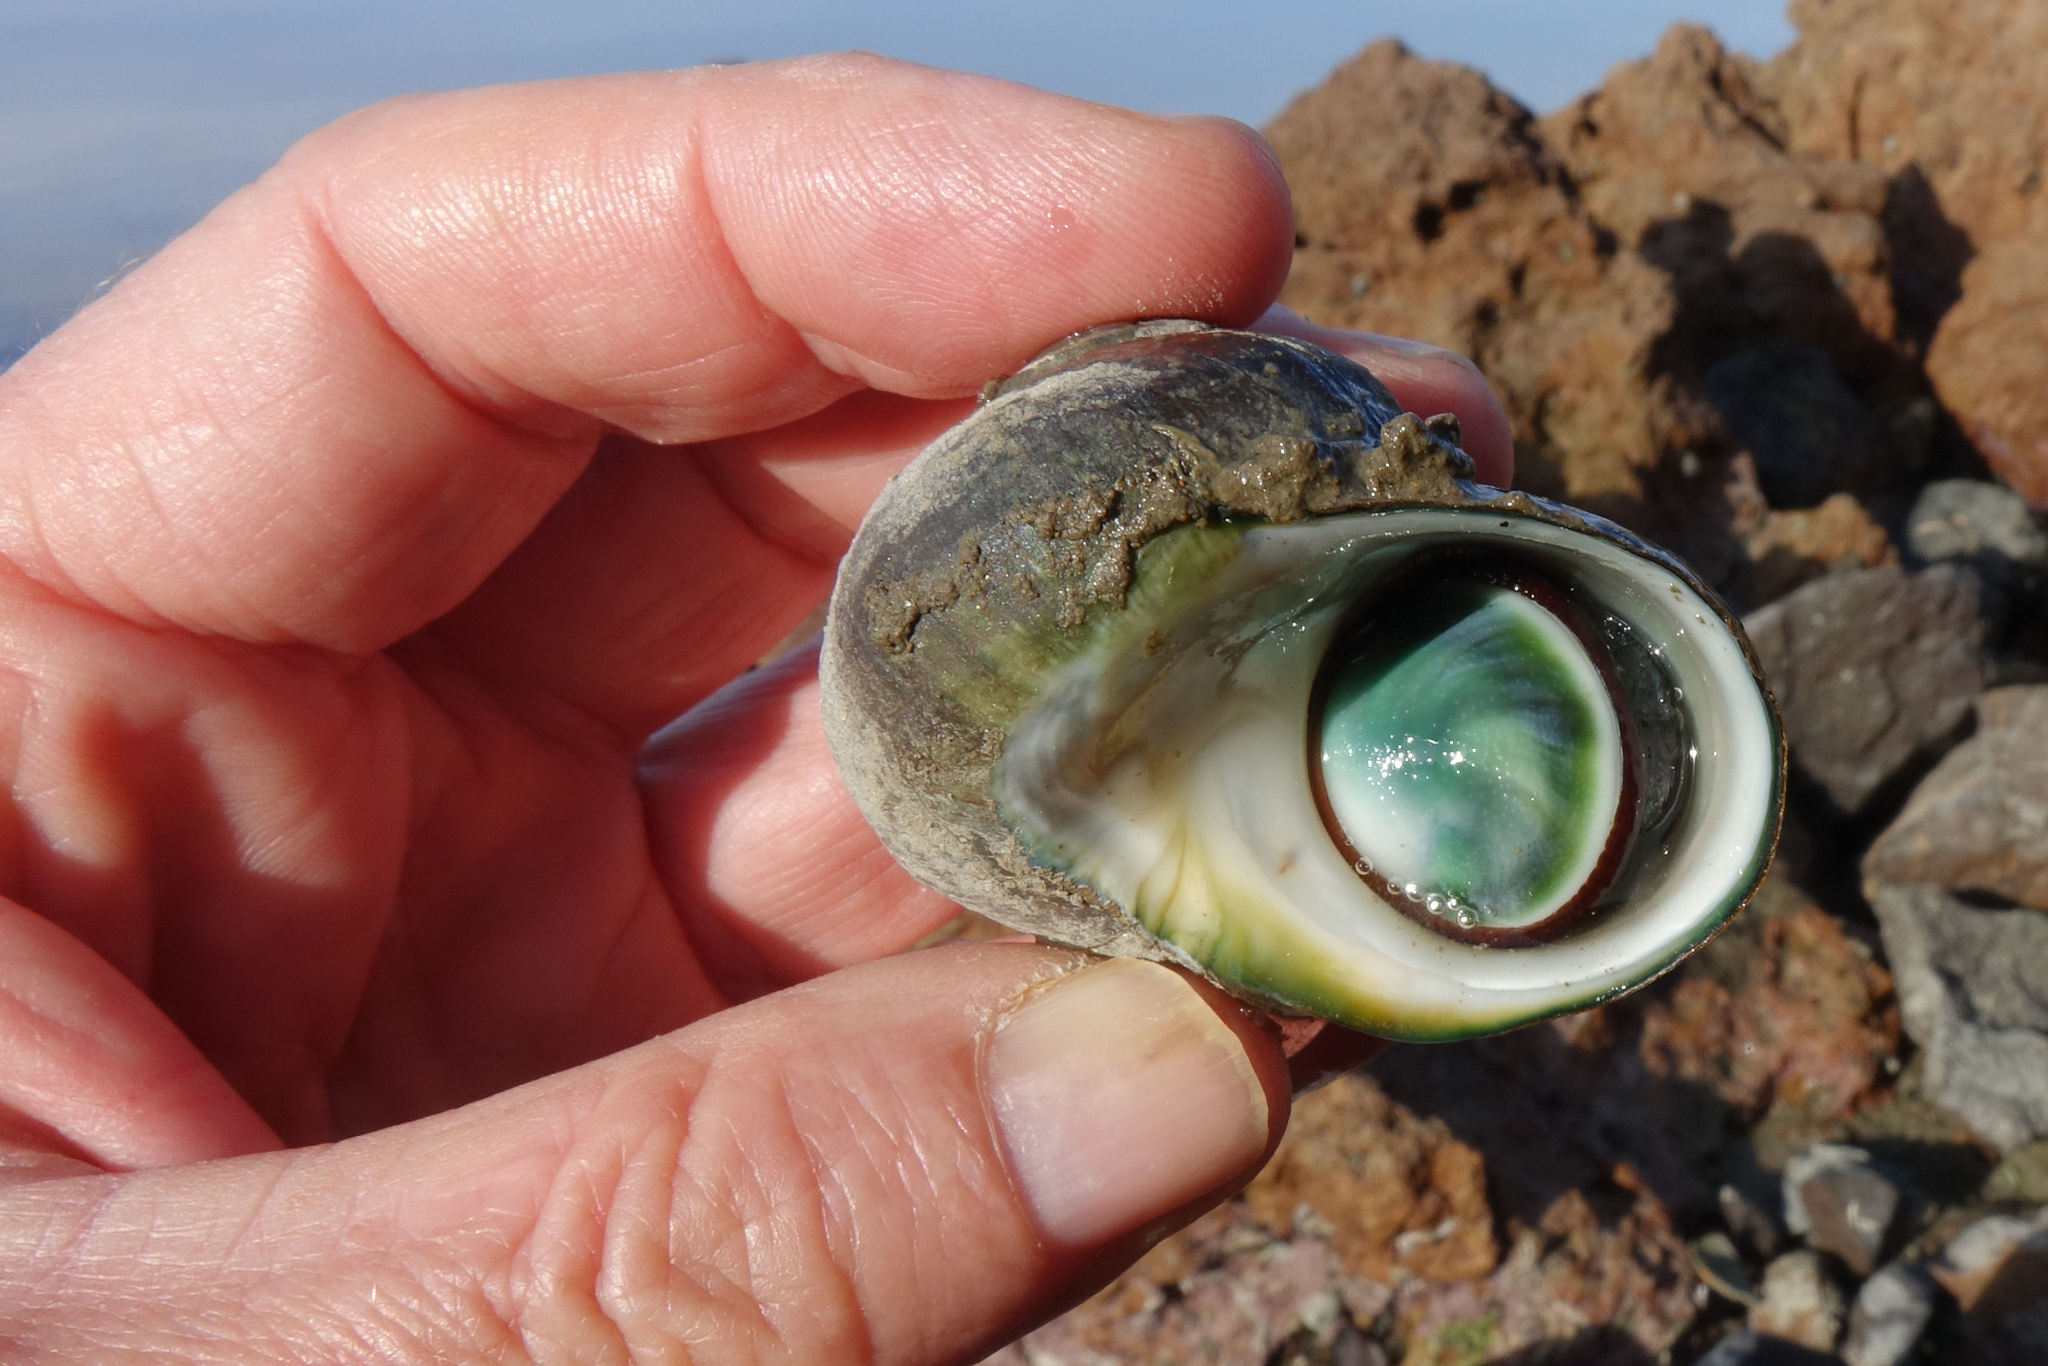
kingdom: Animalia
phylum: Mollusca
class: Gastropoda
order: Trochida
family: Turbinidae
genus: Lunella
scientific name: Lunella smaragda
